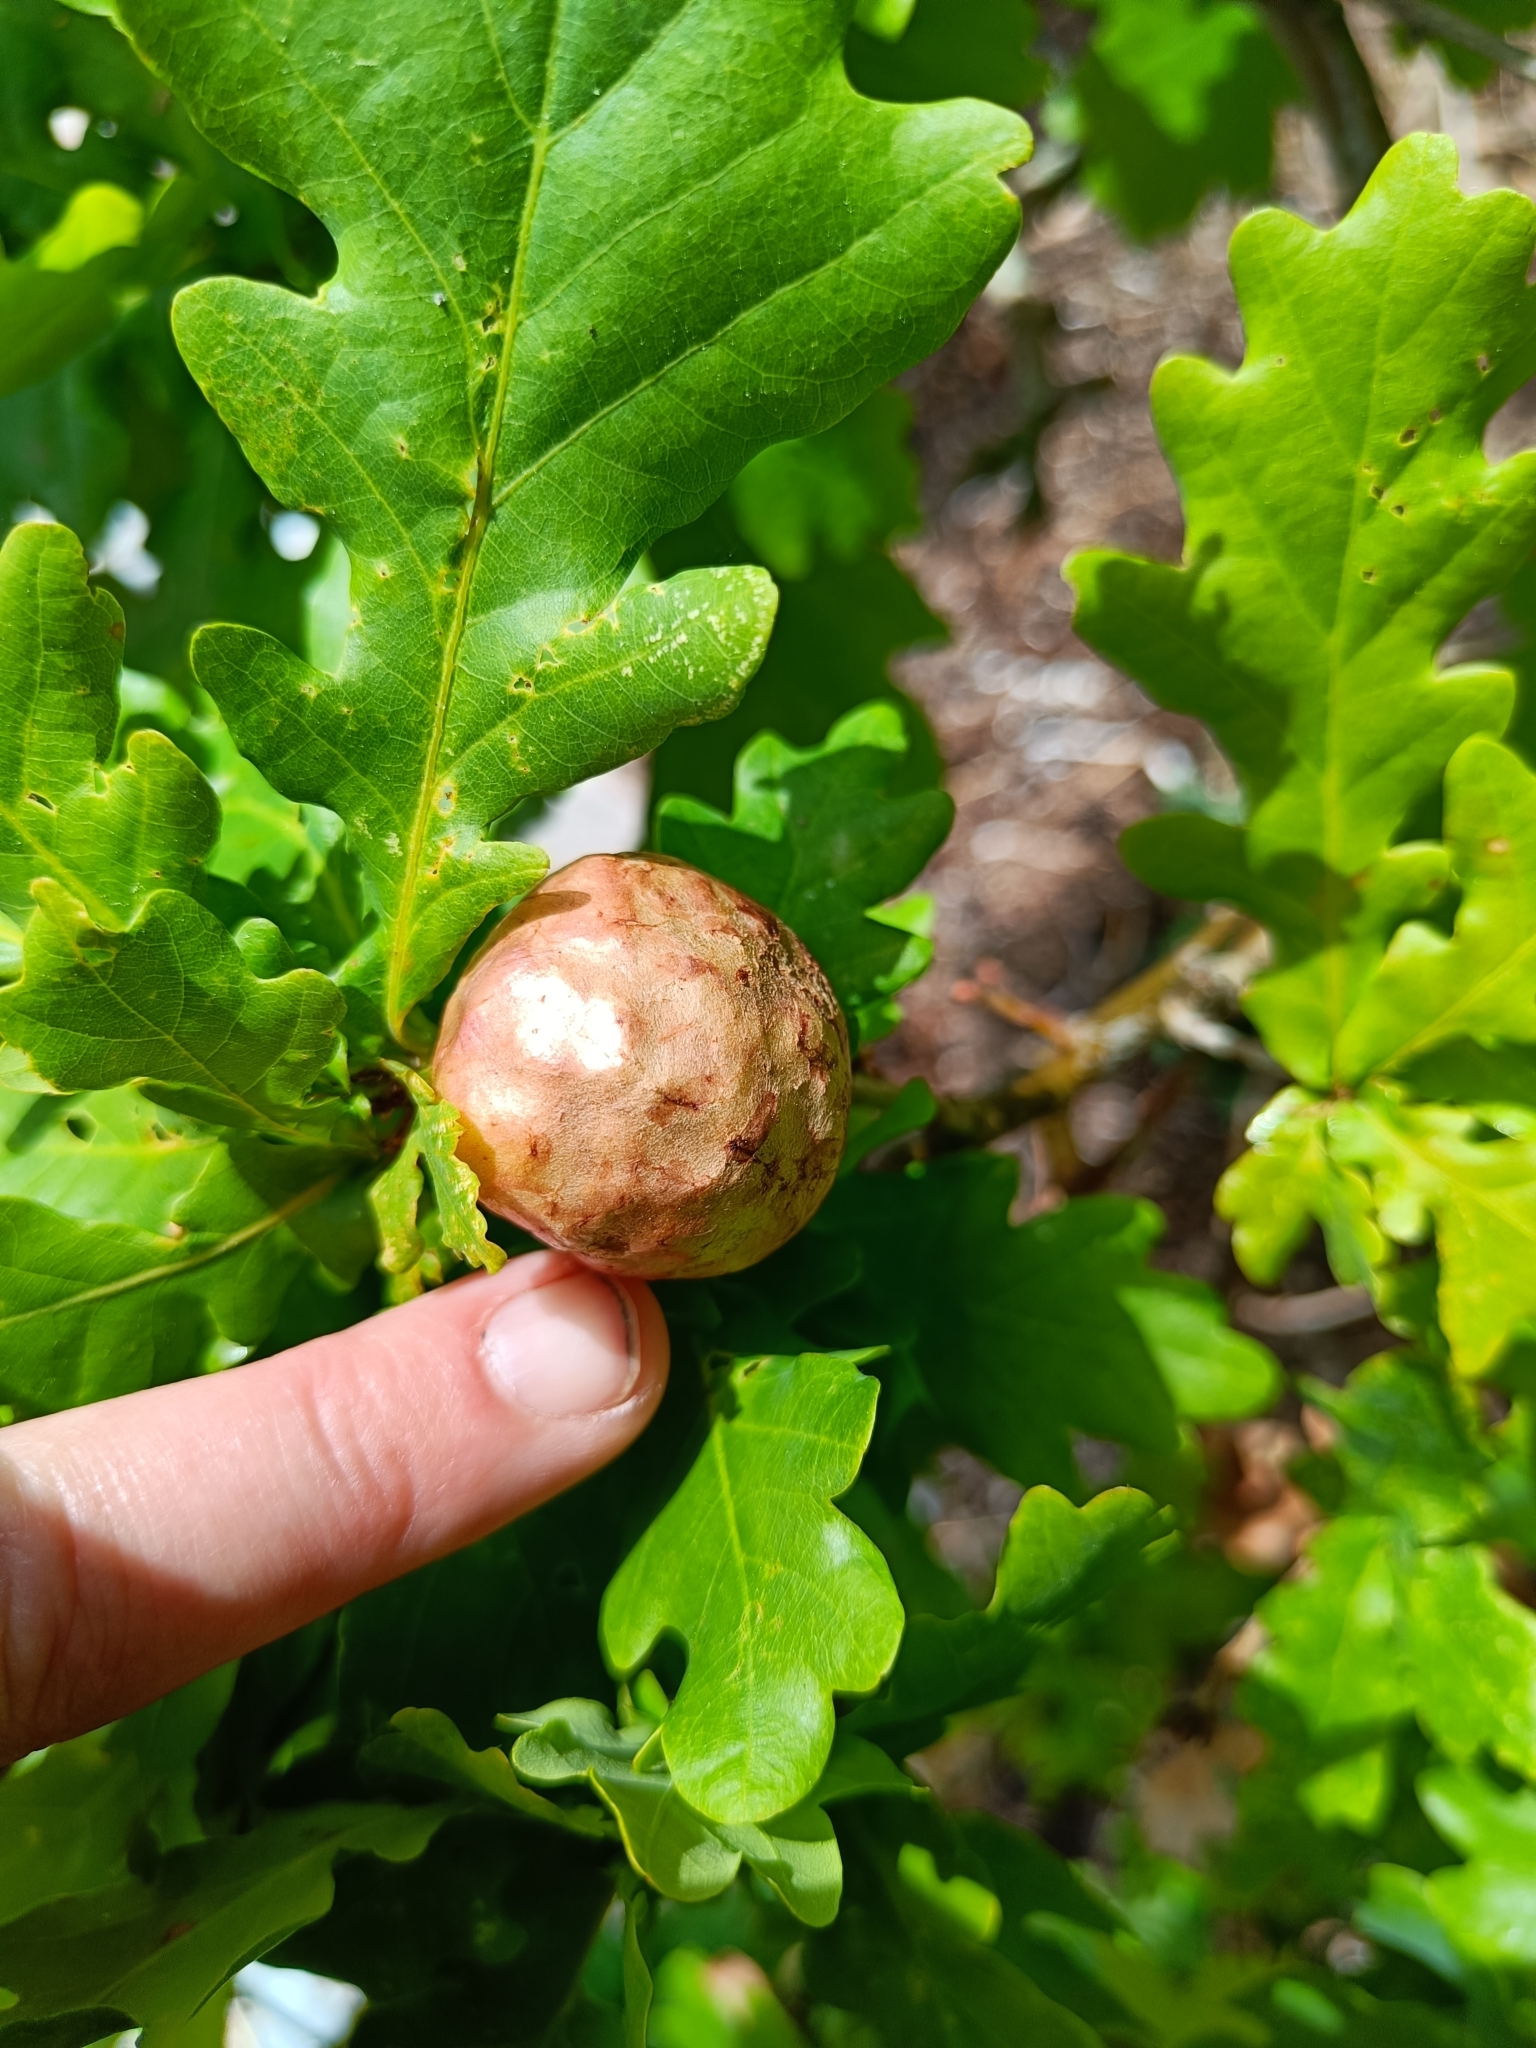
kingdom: Animalia
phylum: Arthropoda
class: Insecta
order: Hymenoptera
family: Cynipidae
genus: Biorhiza
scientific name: Biorhiza pallida
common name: Oak apple
